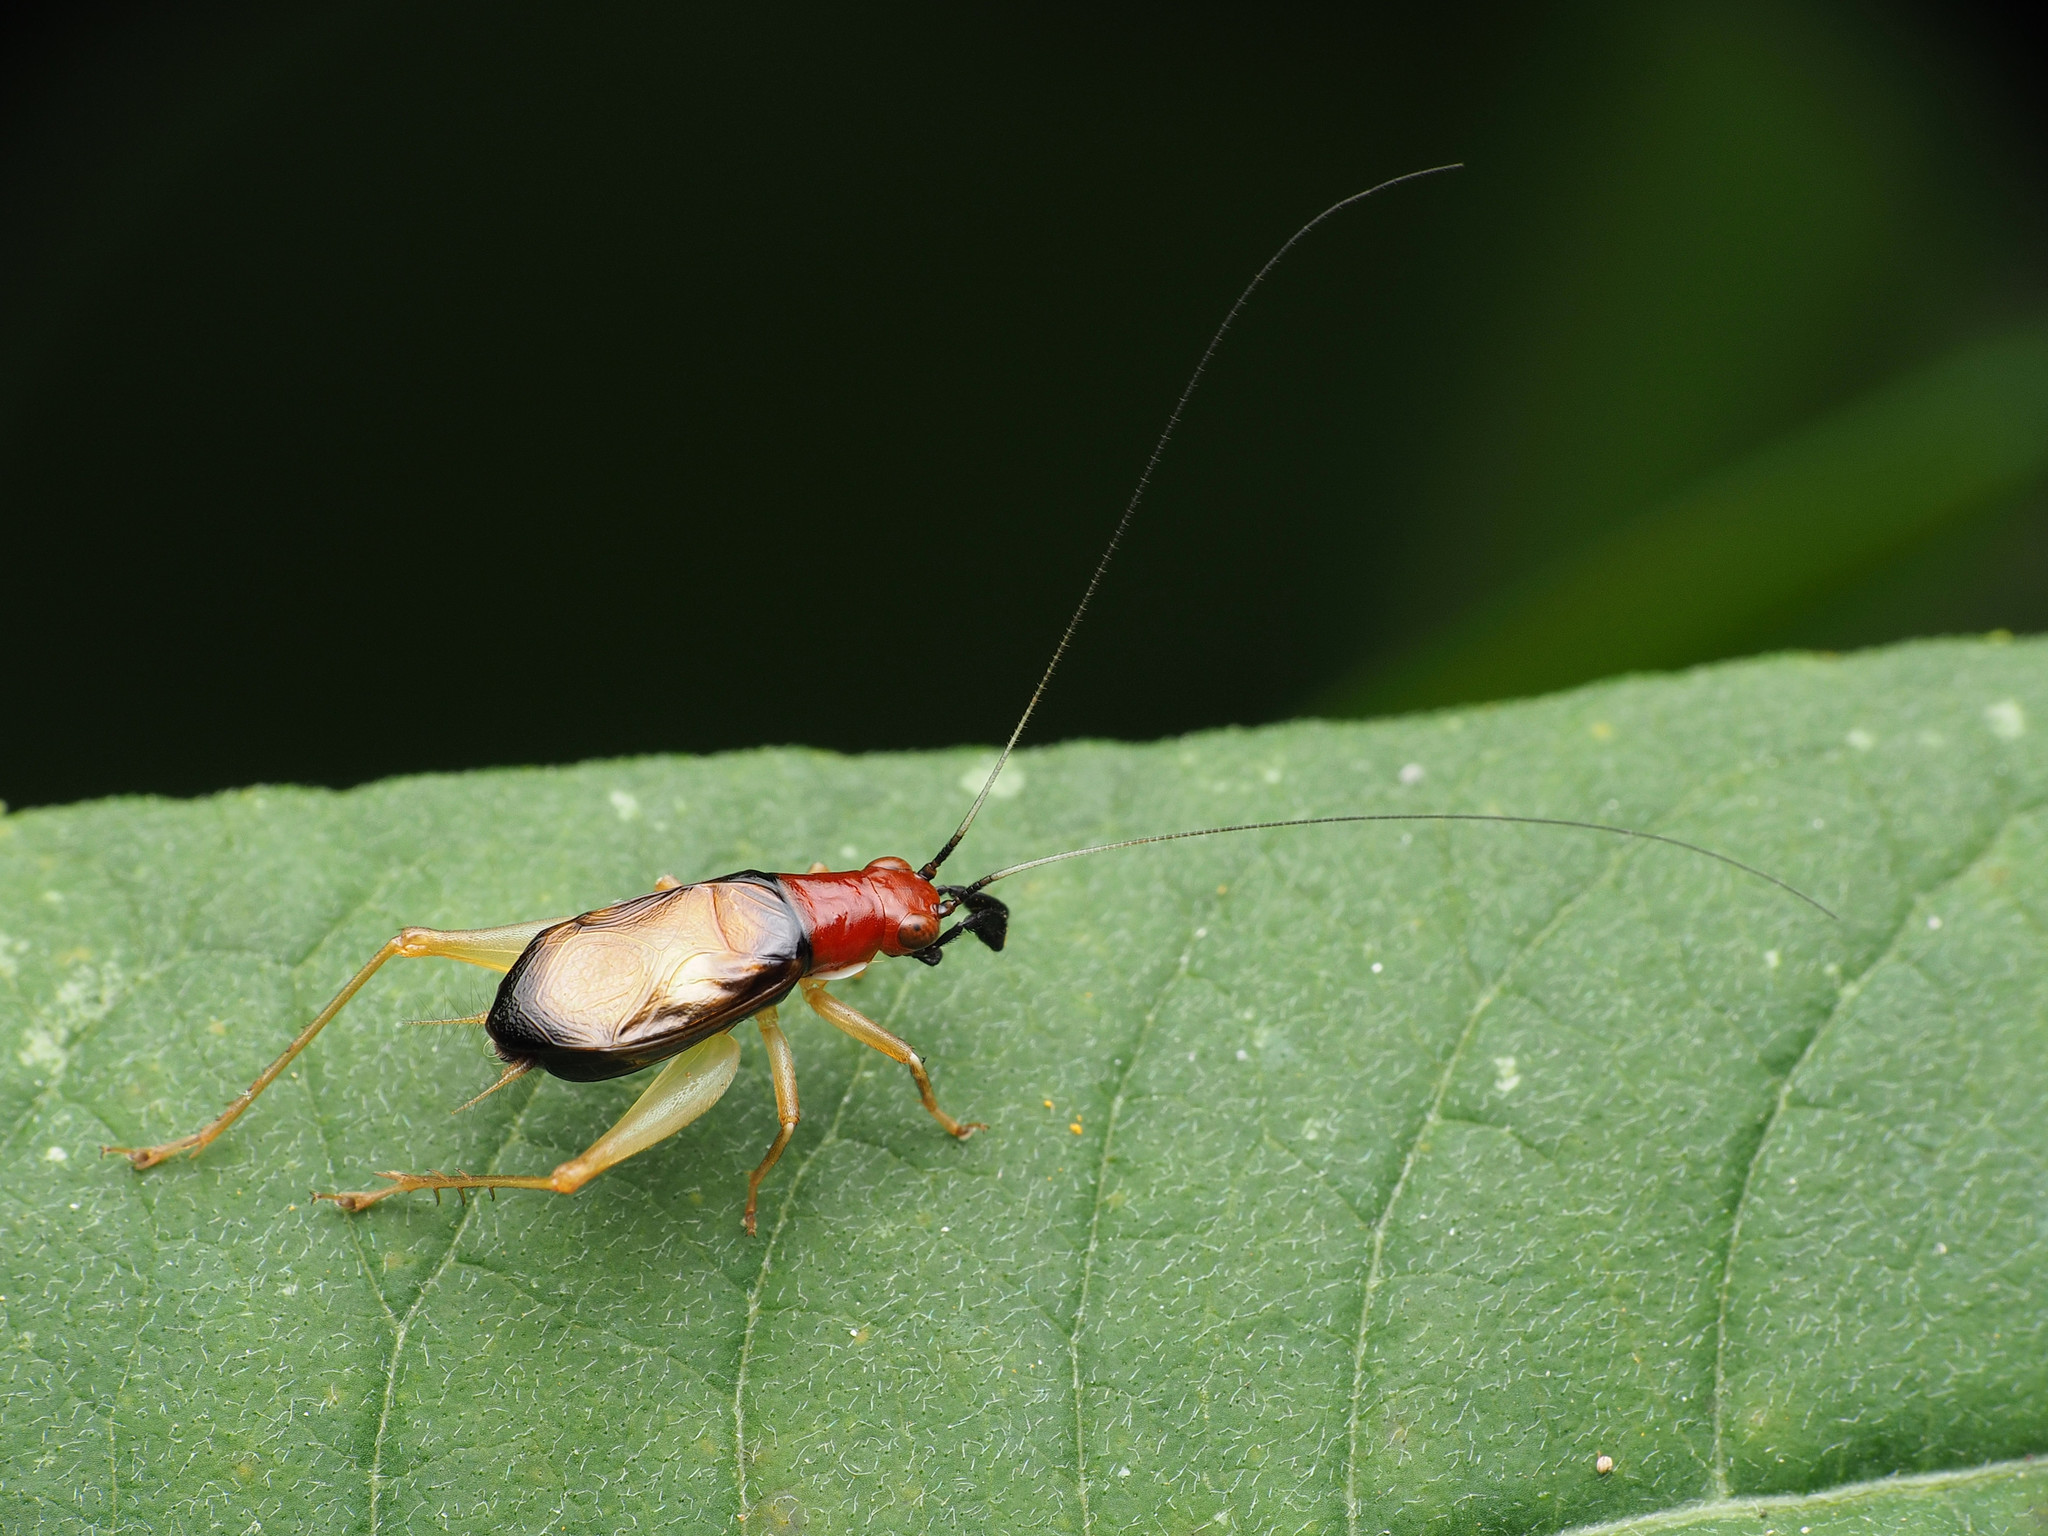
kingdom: Animalia
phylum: Arthropoda
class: Insecta
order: Orthoptera
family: Trigonidiidae
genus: Phyllopalpus
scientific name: Phyllopalpus pulchellus
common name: Handsome trig
